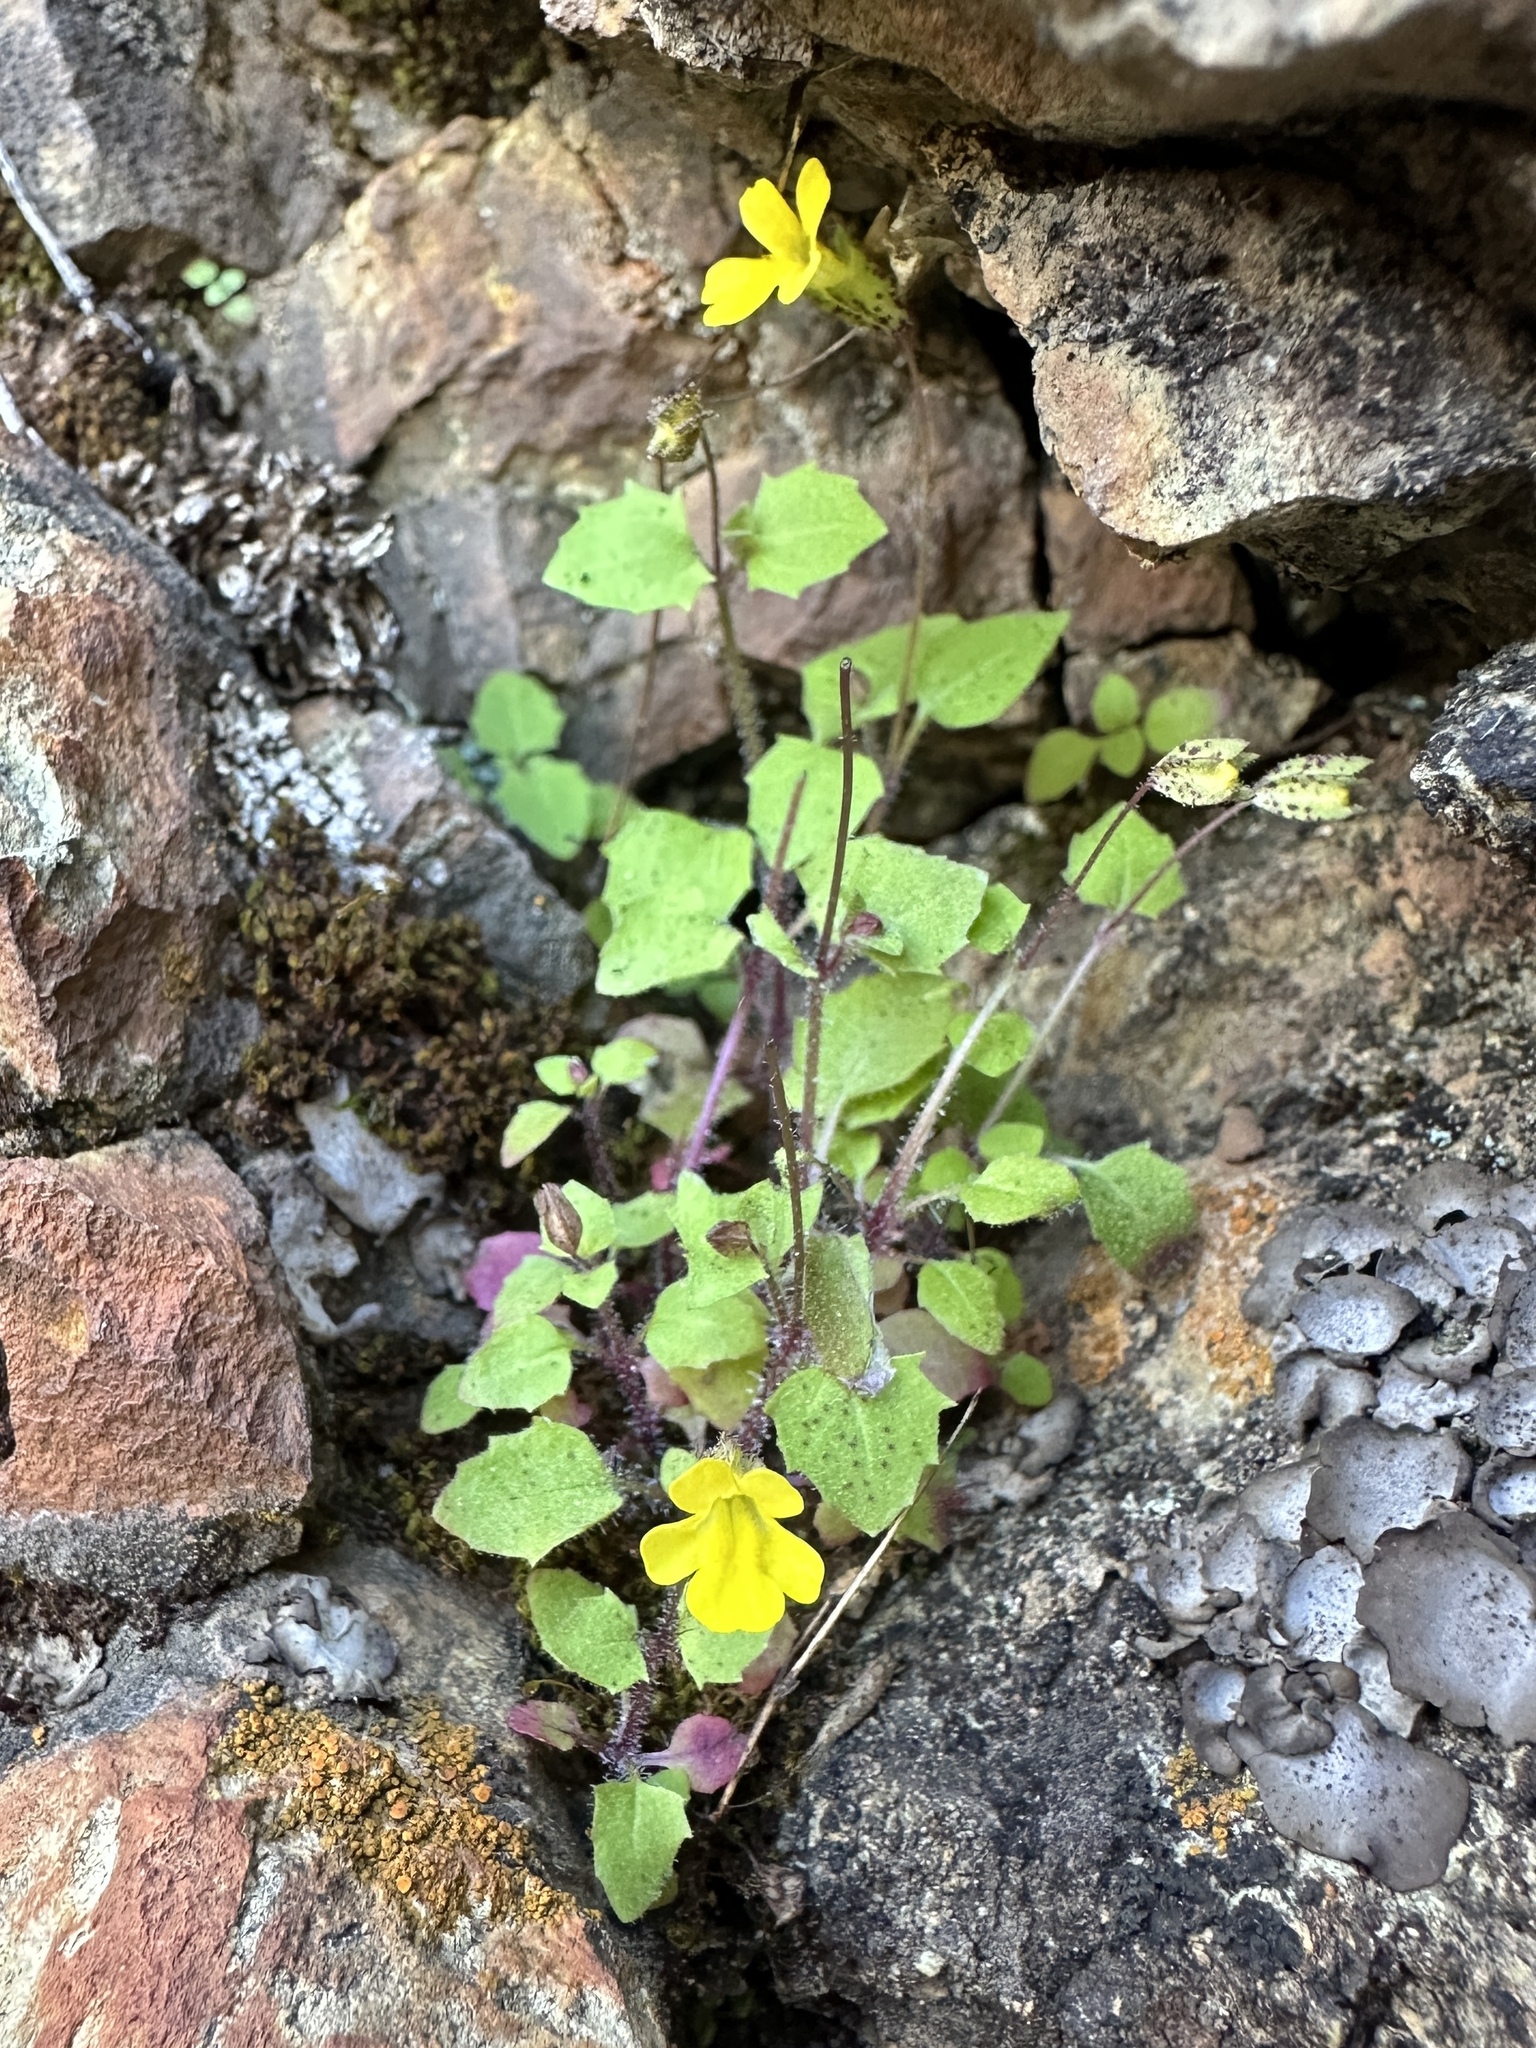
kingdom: Plantae
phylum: Tracheophyta
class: Magnoliopsida
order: Lamiales
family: Phrymaceae
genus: Erythranthe
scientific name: Erythranthe pardalis
